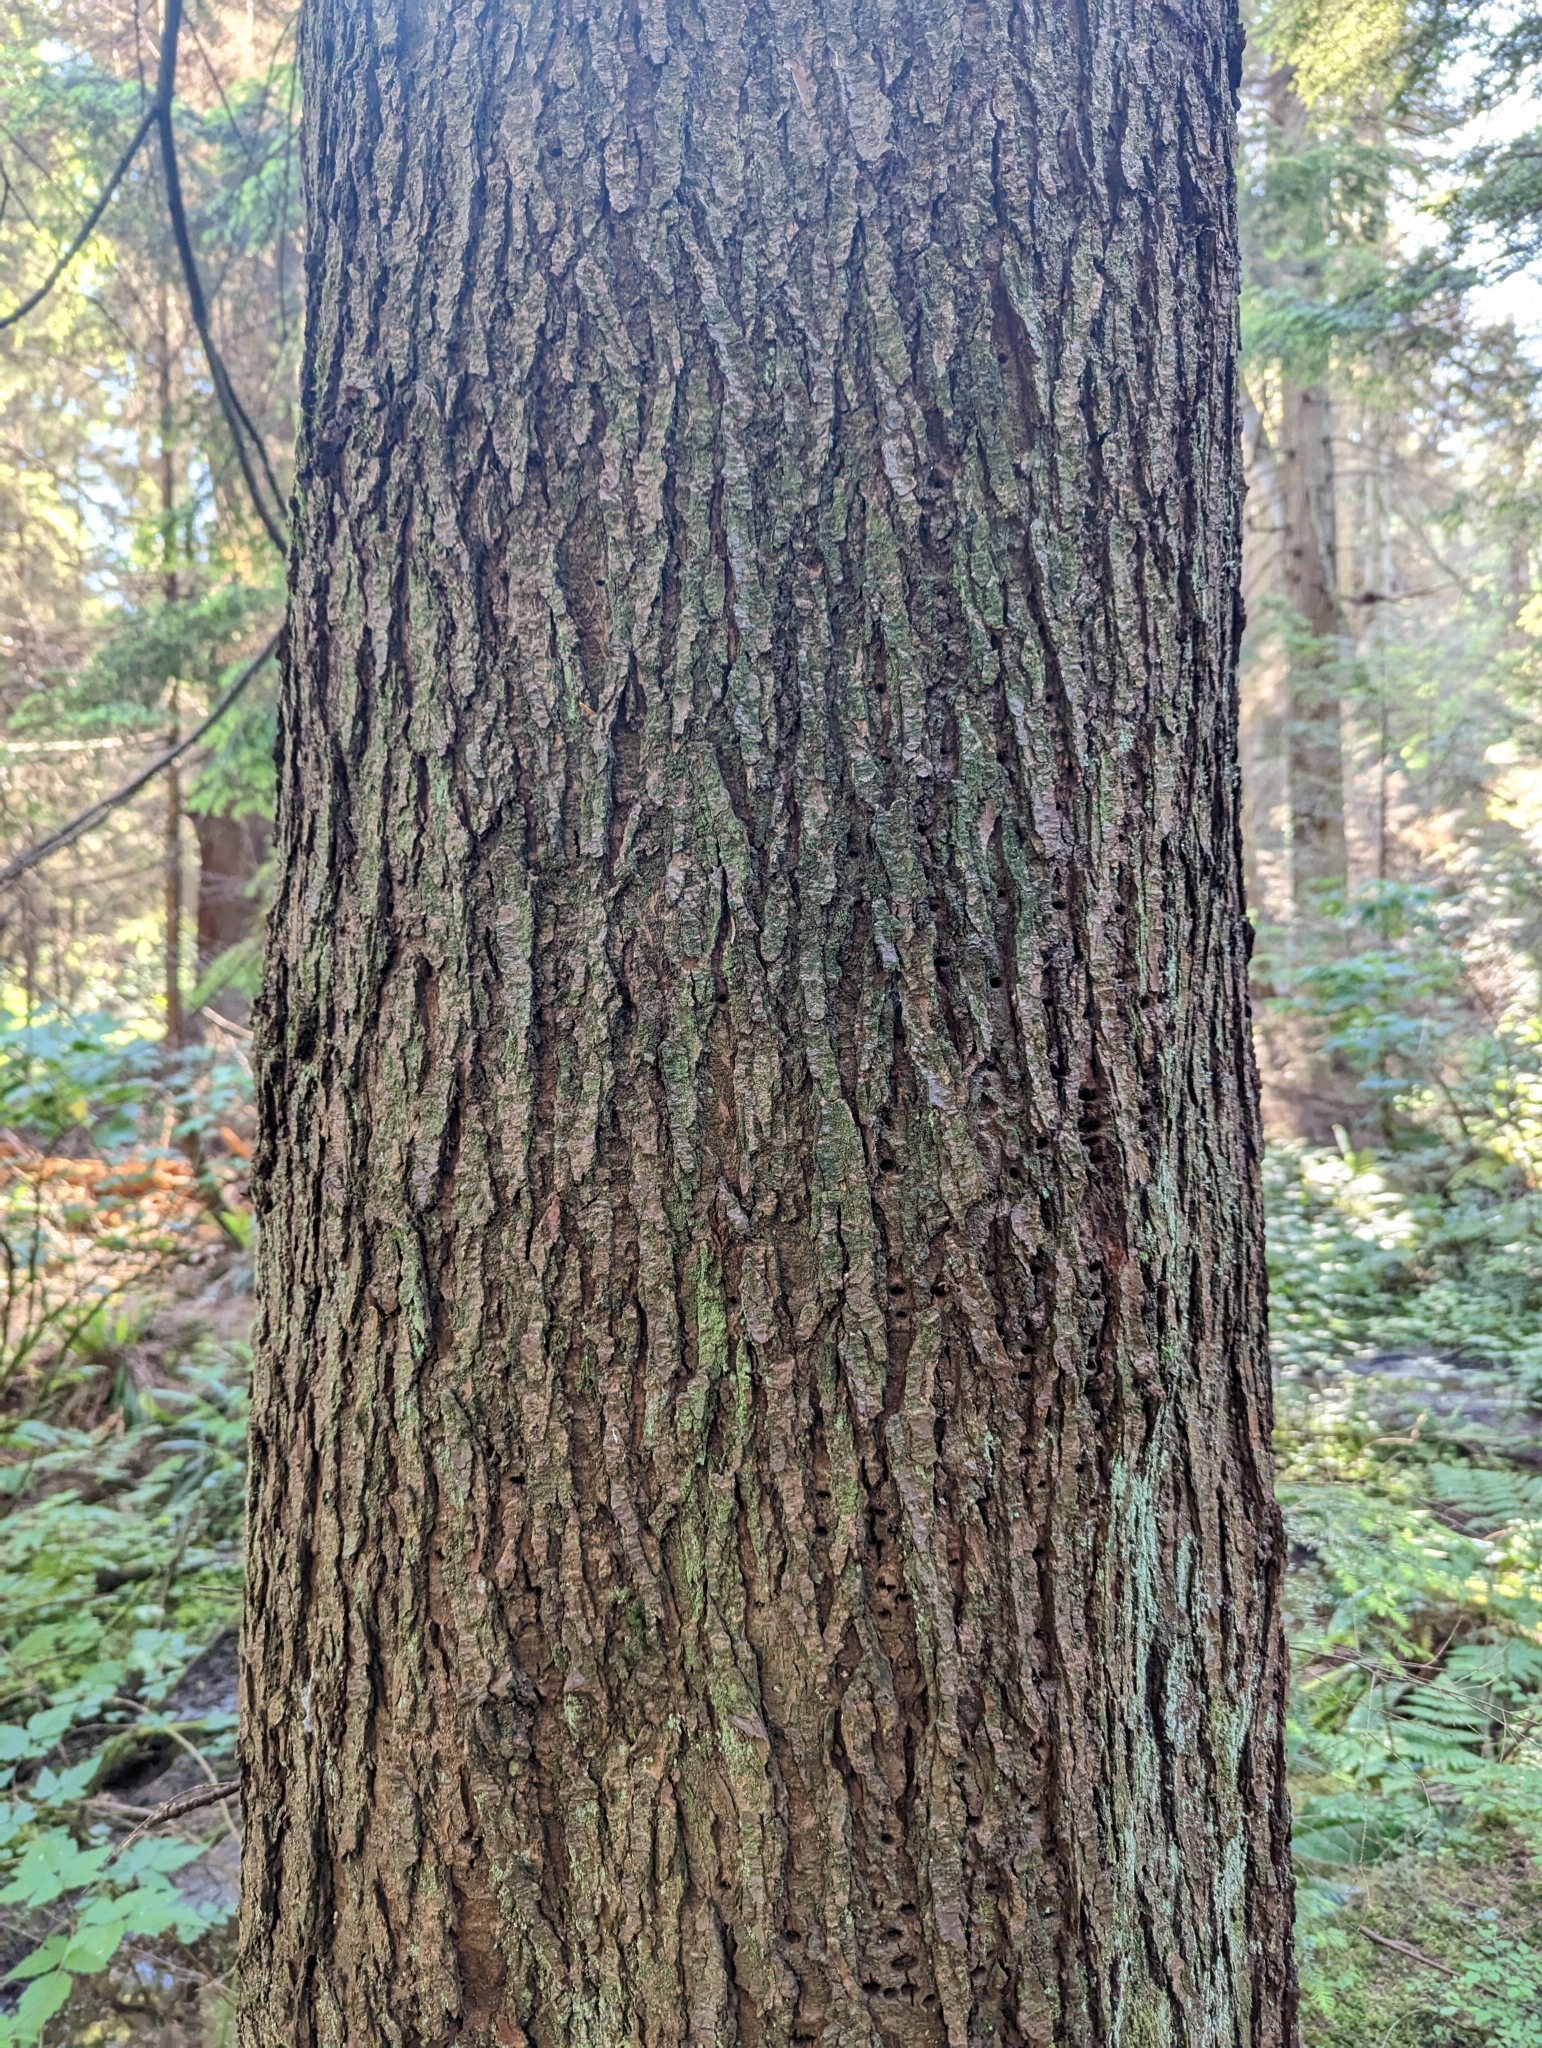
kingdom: Plantae
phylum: Tracheophyta
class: Pinopsida
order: Pinales
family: Pinaceae
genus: Tsuga
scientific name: Tsuga heterophylla
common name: Western hemlock
